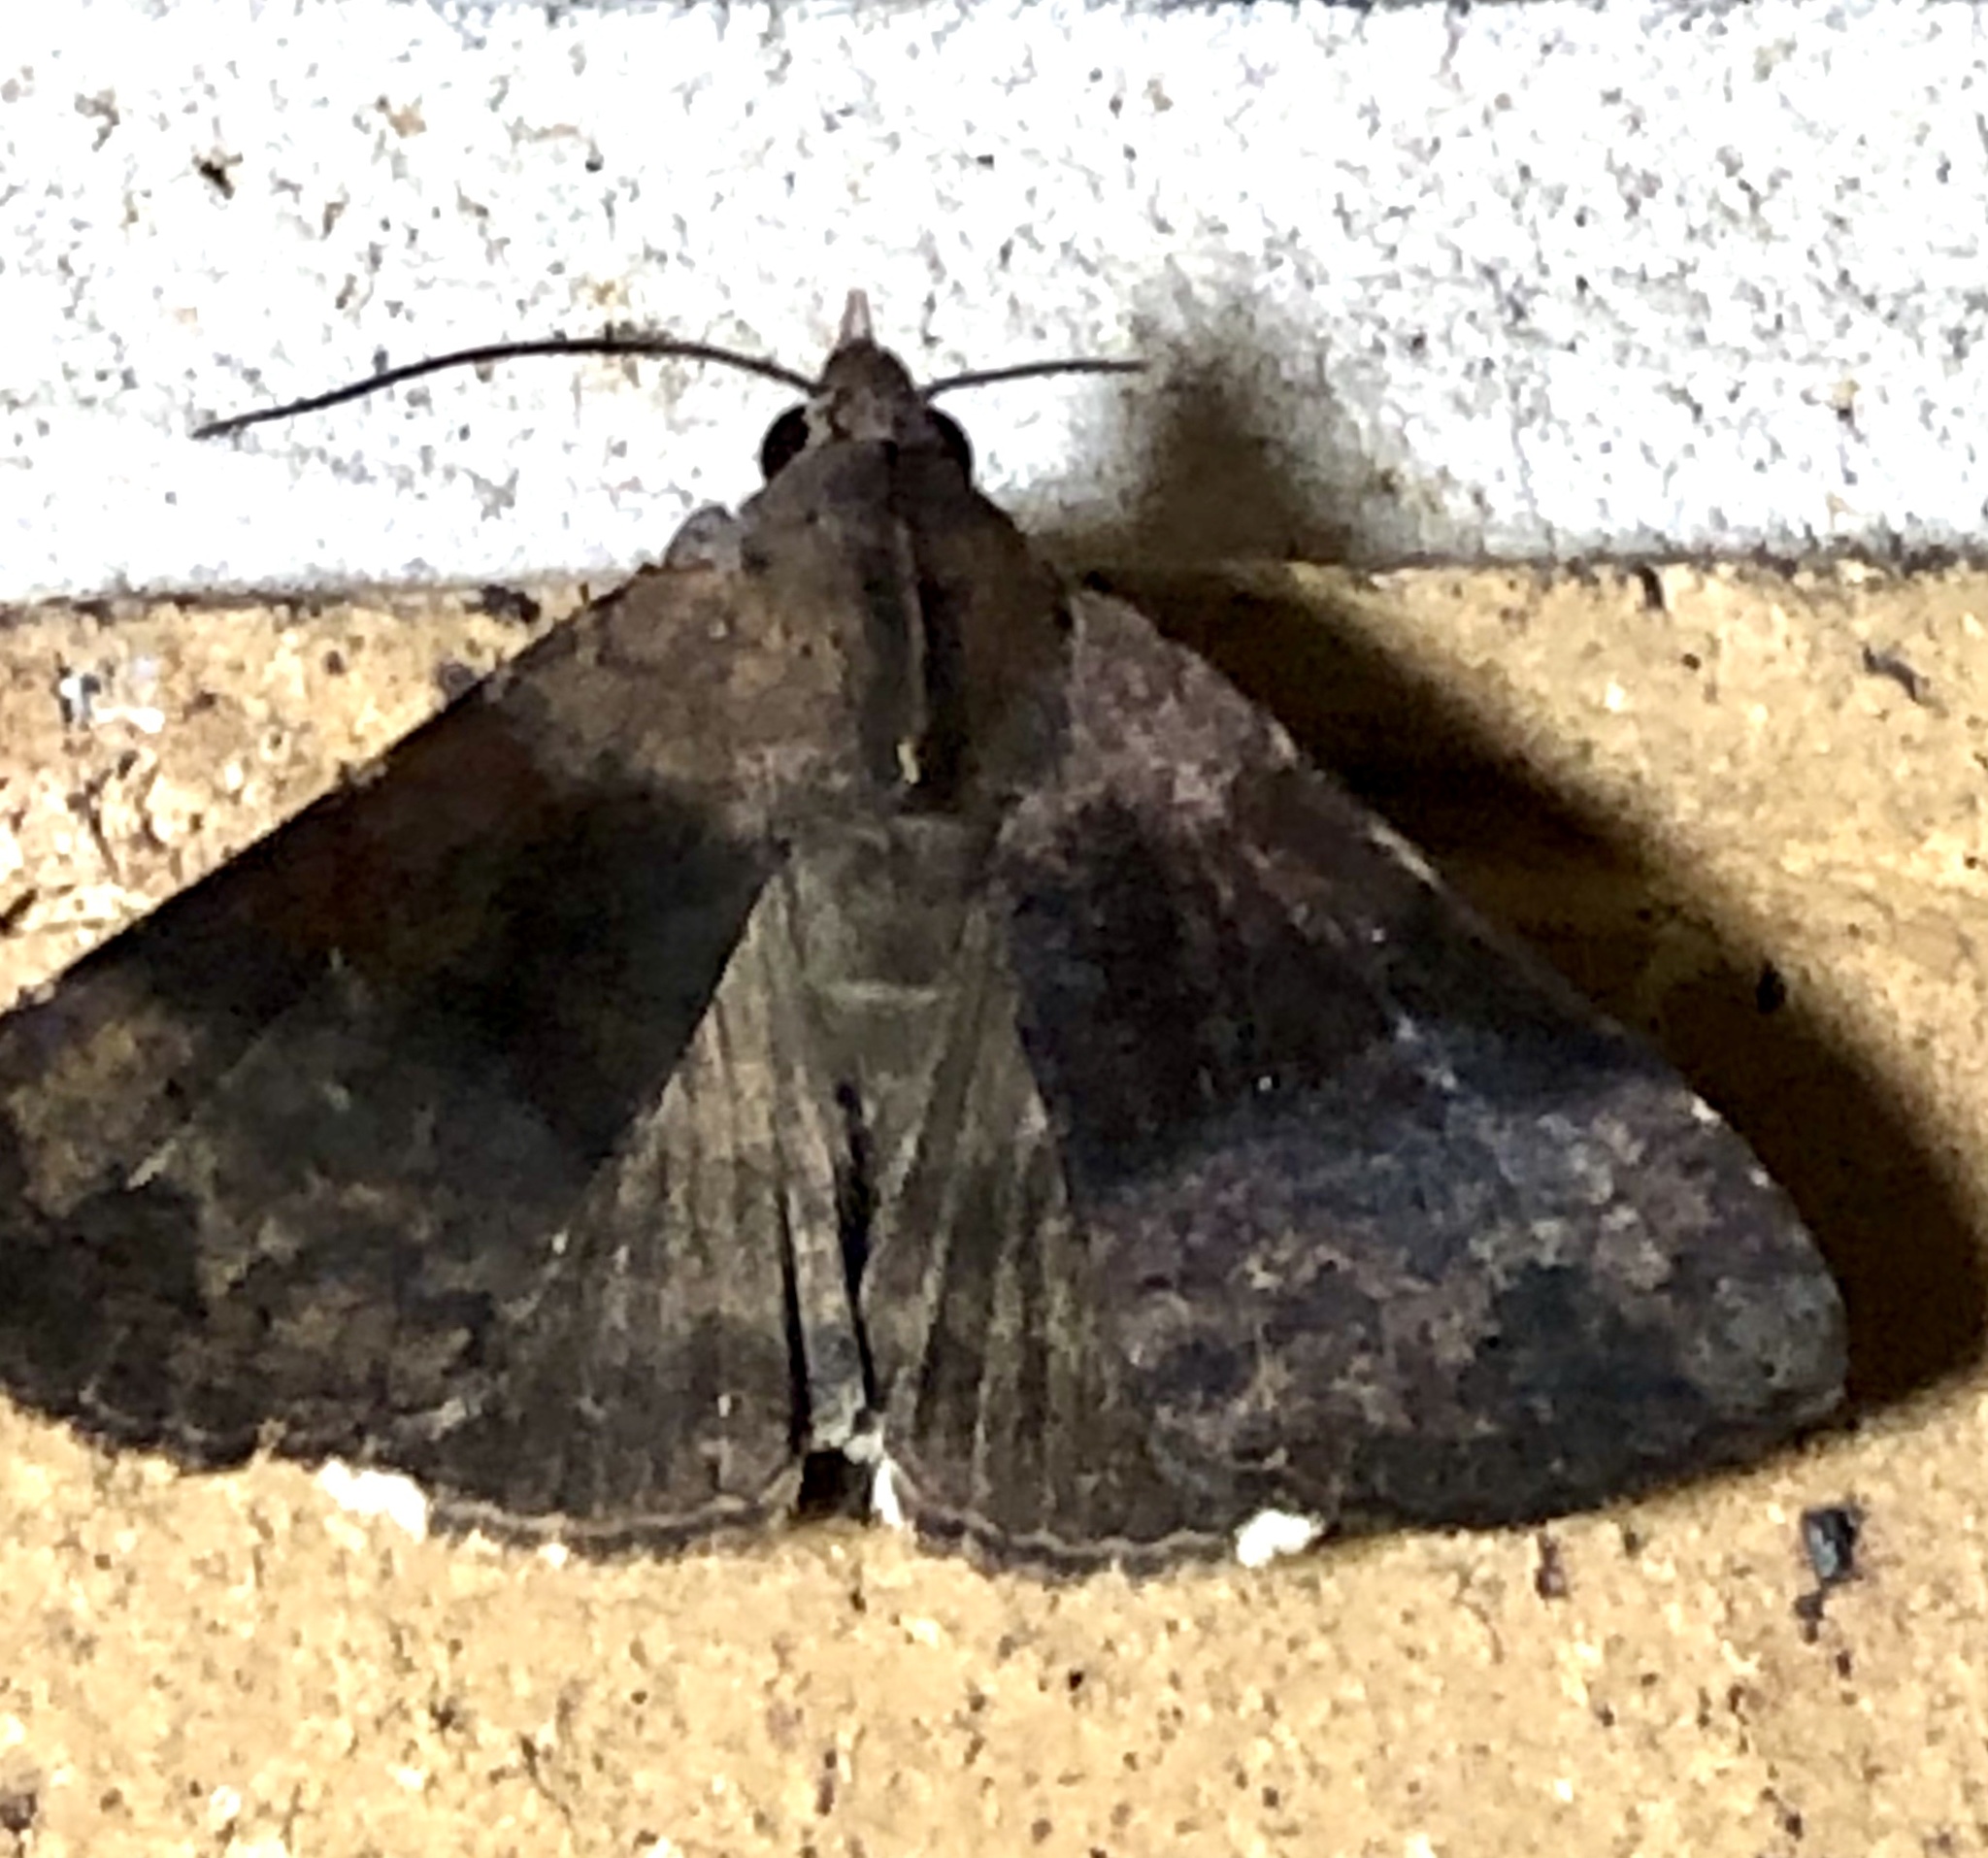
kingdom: Animalia
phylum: Arthropoda
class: Insecta
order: Lepidoptera
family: Erebidae
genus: Avatha
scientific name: Avatha discolor
